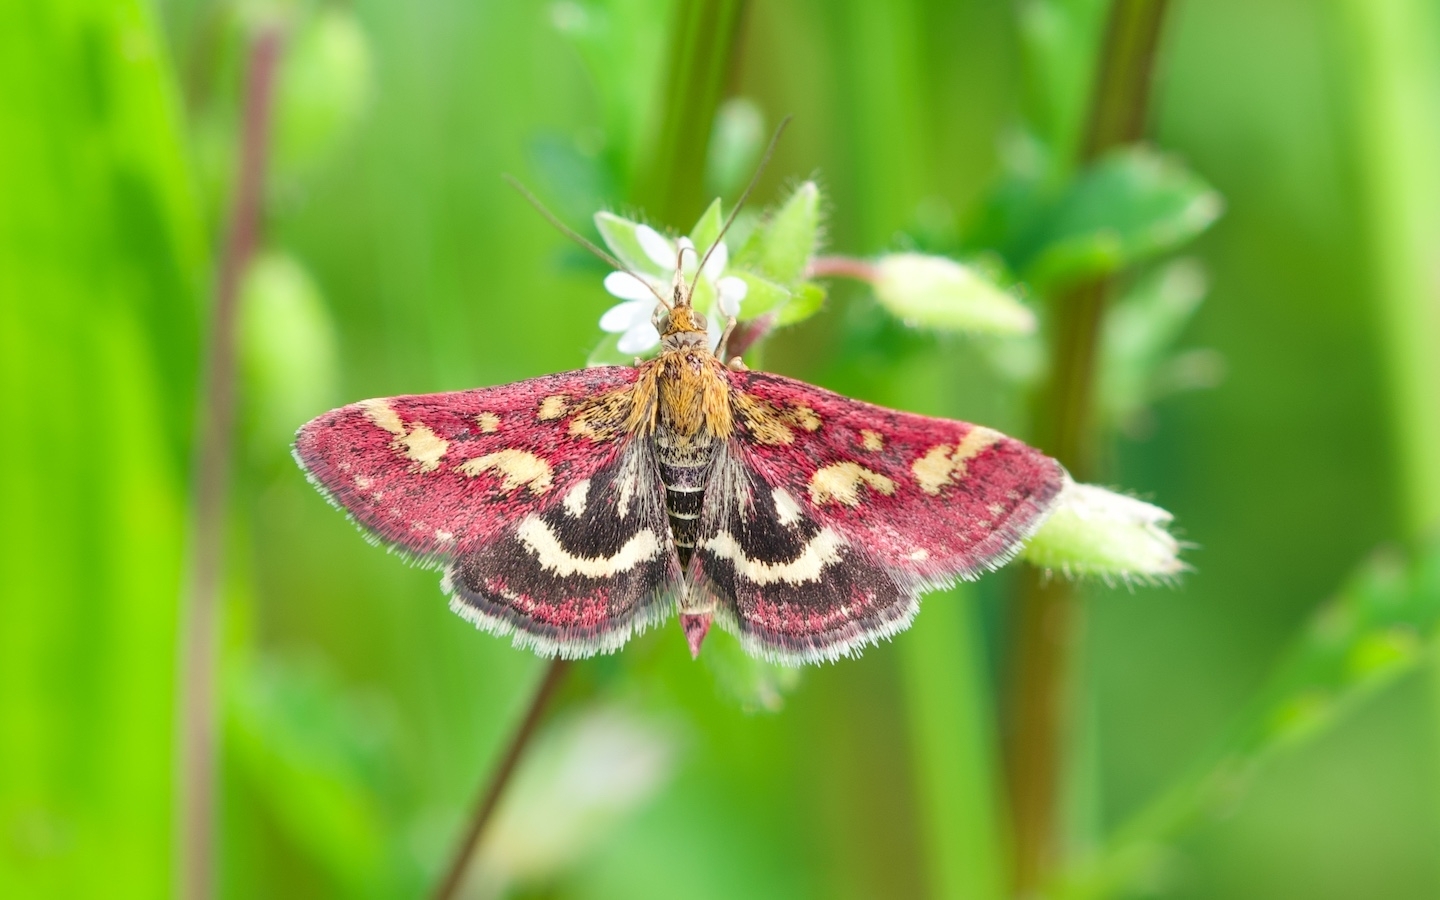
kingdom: Animalia
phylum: Arthropoda
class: Insecta
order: Lepidoptera
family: Crambidae
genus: Pyrausta
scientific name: Pyrausta purpuralis
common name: Common purple & gold
